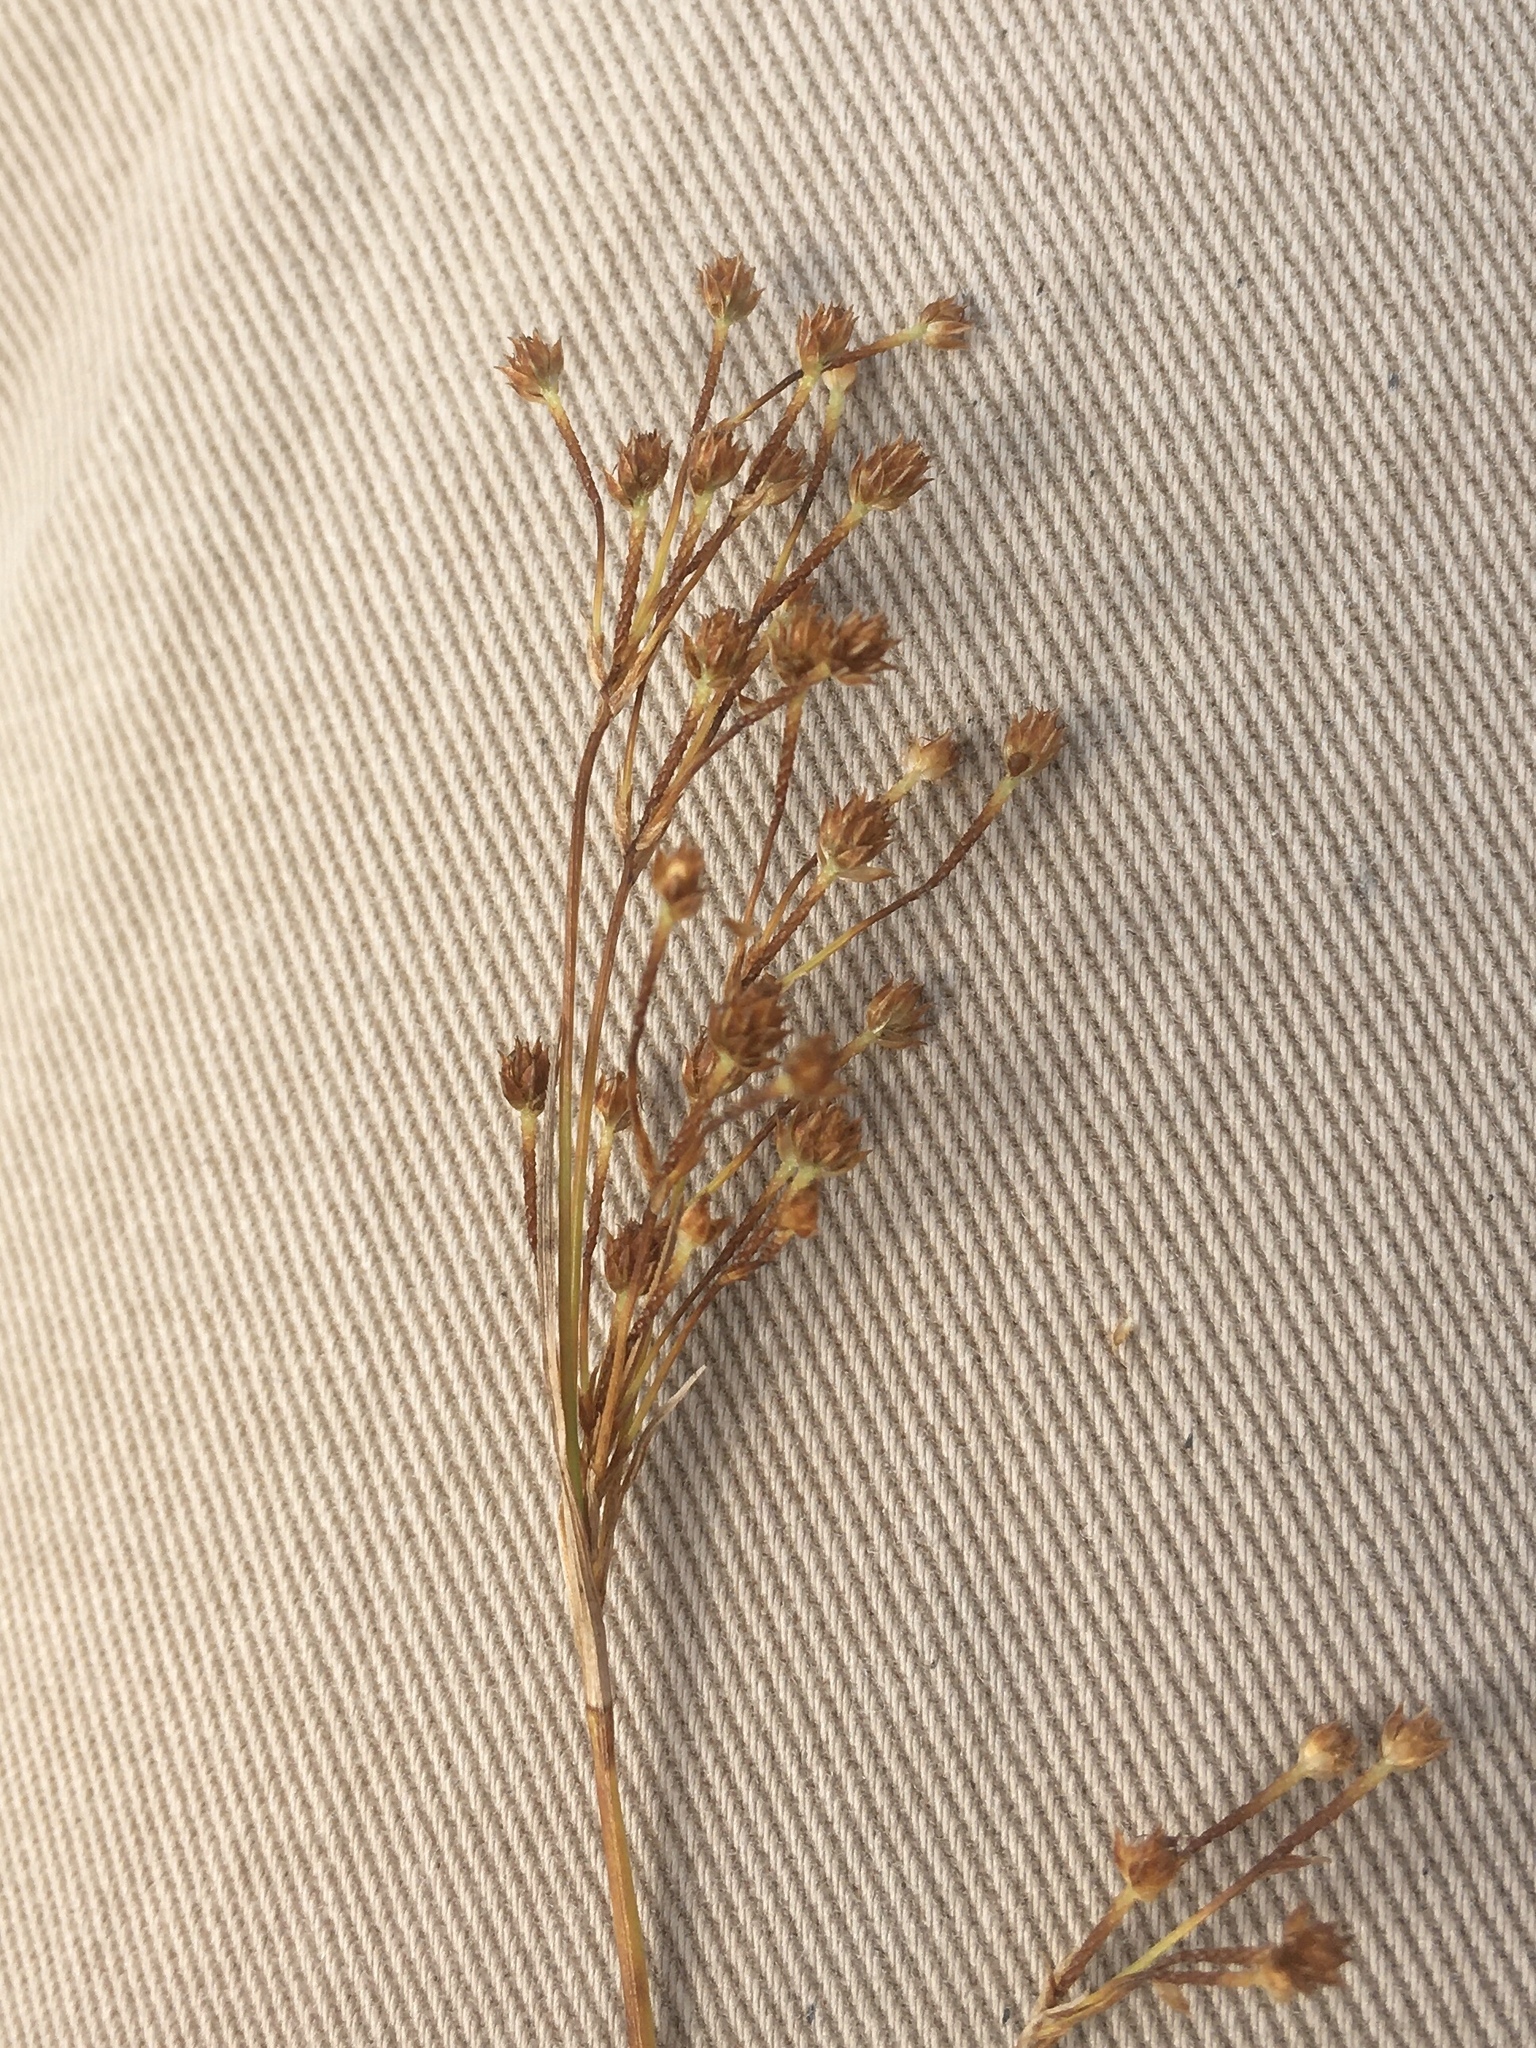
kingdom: Plantae
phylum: Tracheophyta
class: Liliopsida
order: Poales
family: Cyperaceae
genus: Scirpus
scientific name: Scirpus pendulus
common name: Nodding bulrush
